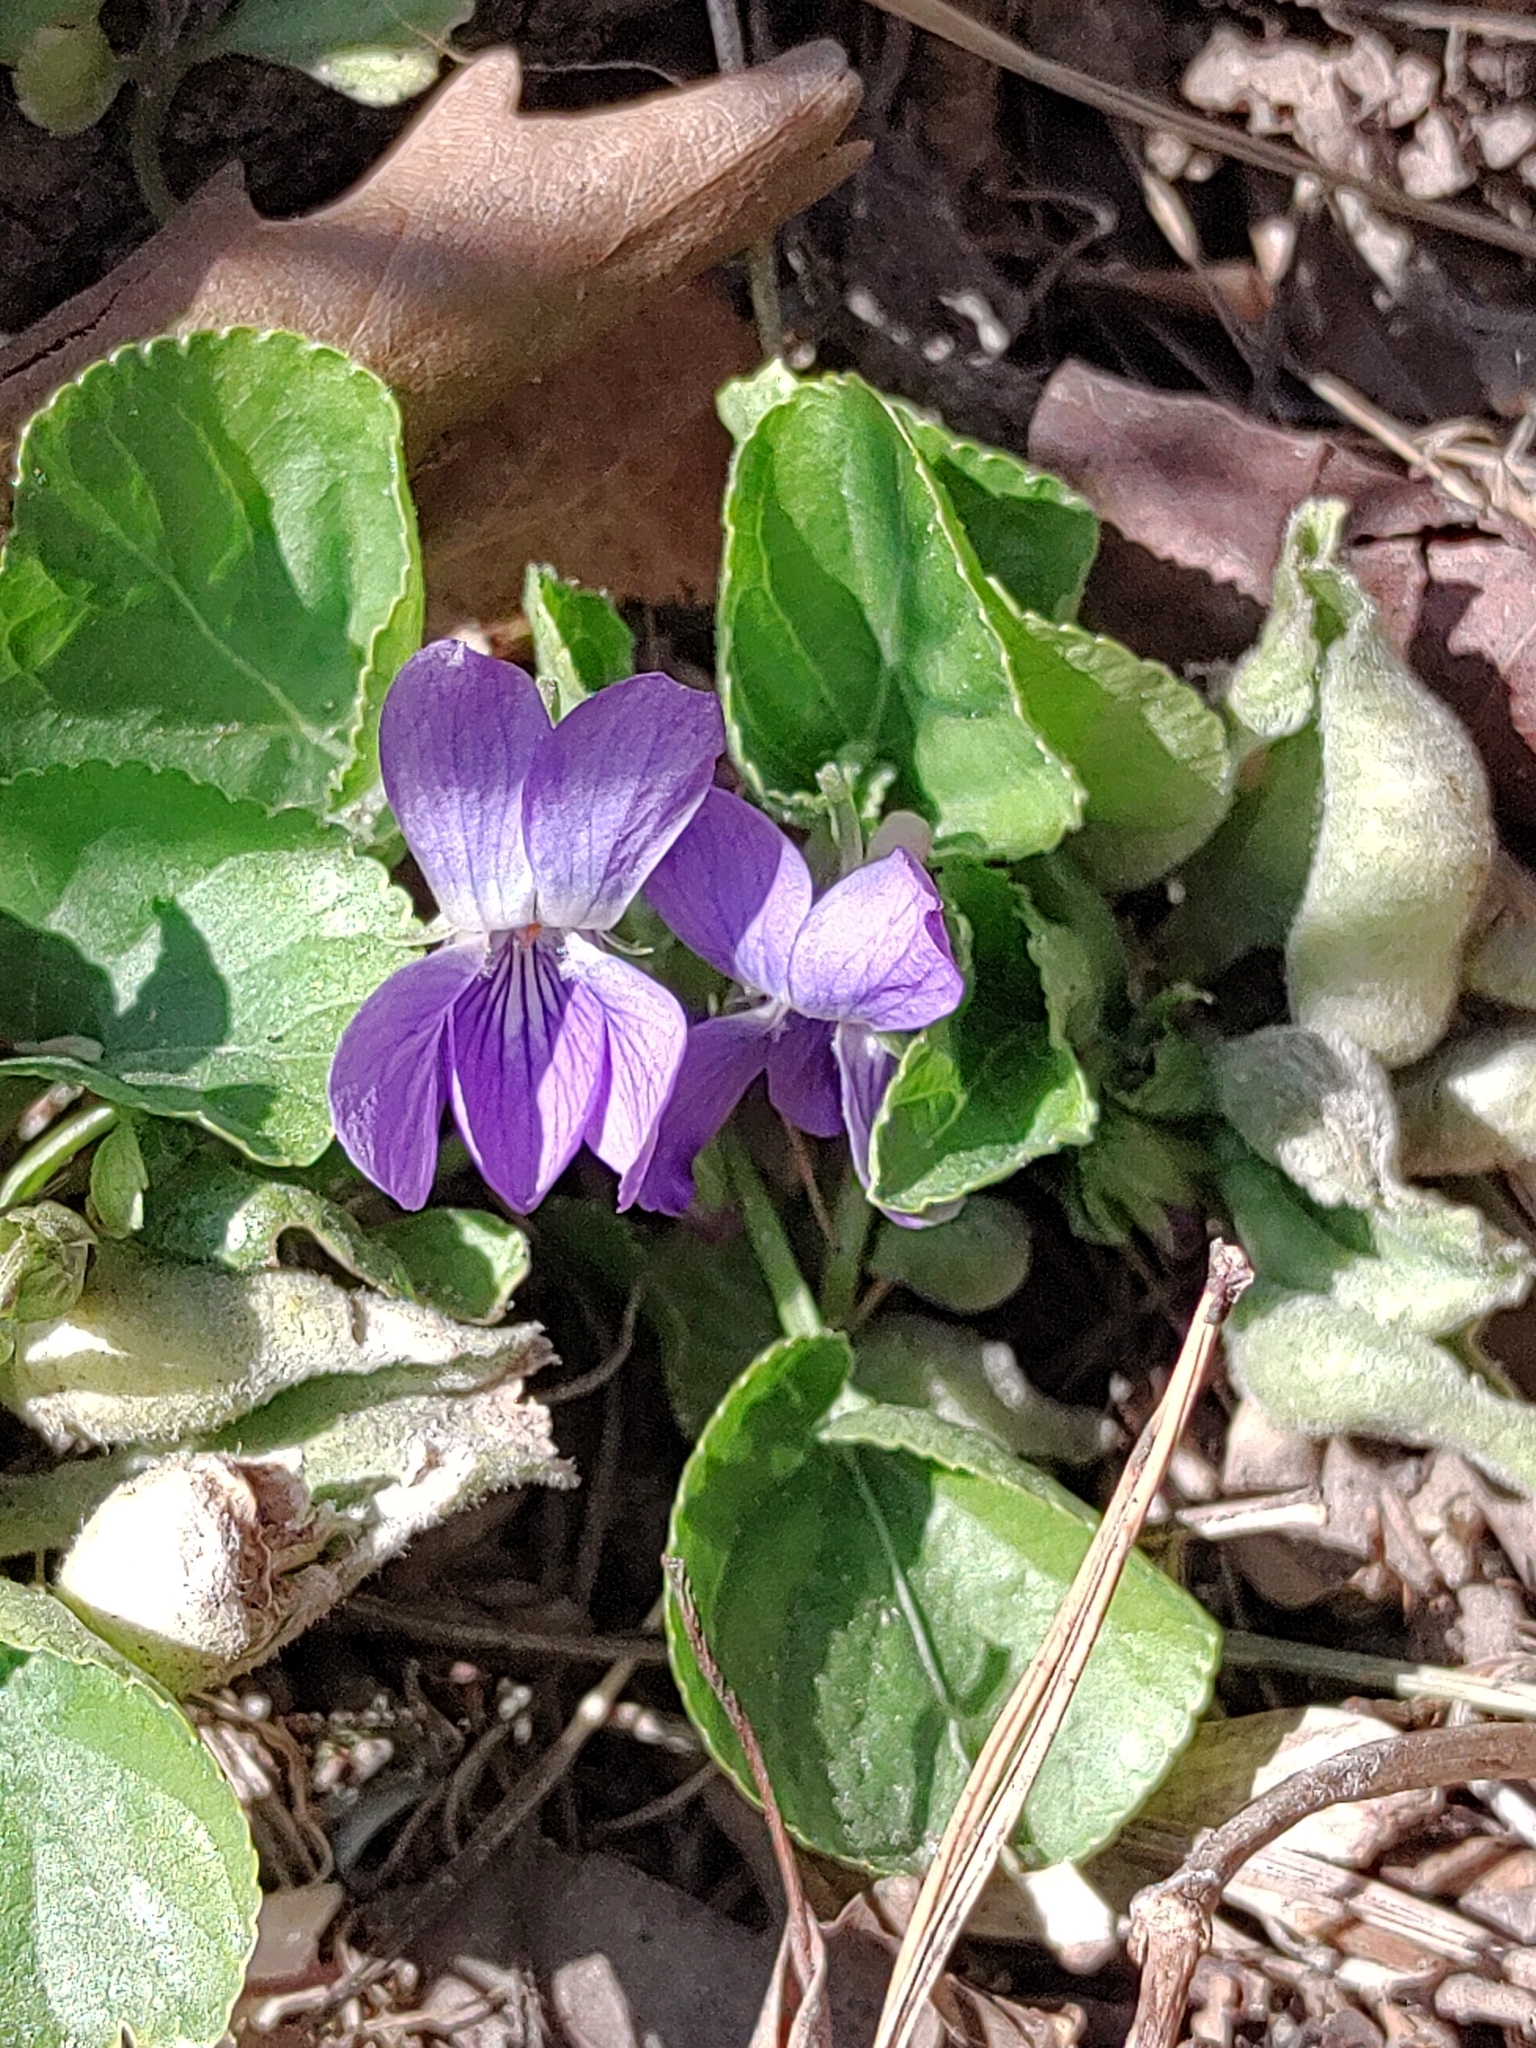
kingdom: Plantae
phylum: Tracheophyta
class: Magnoliopsida
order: Malpighiales
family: Violaceae
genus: Viola
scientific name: Viola odorata
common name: Sweet violet
